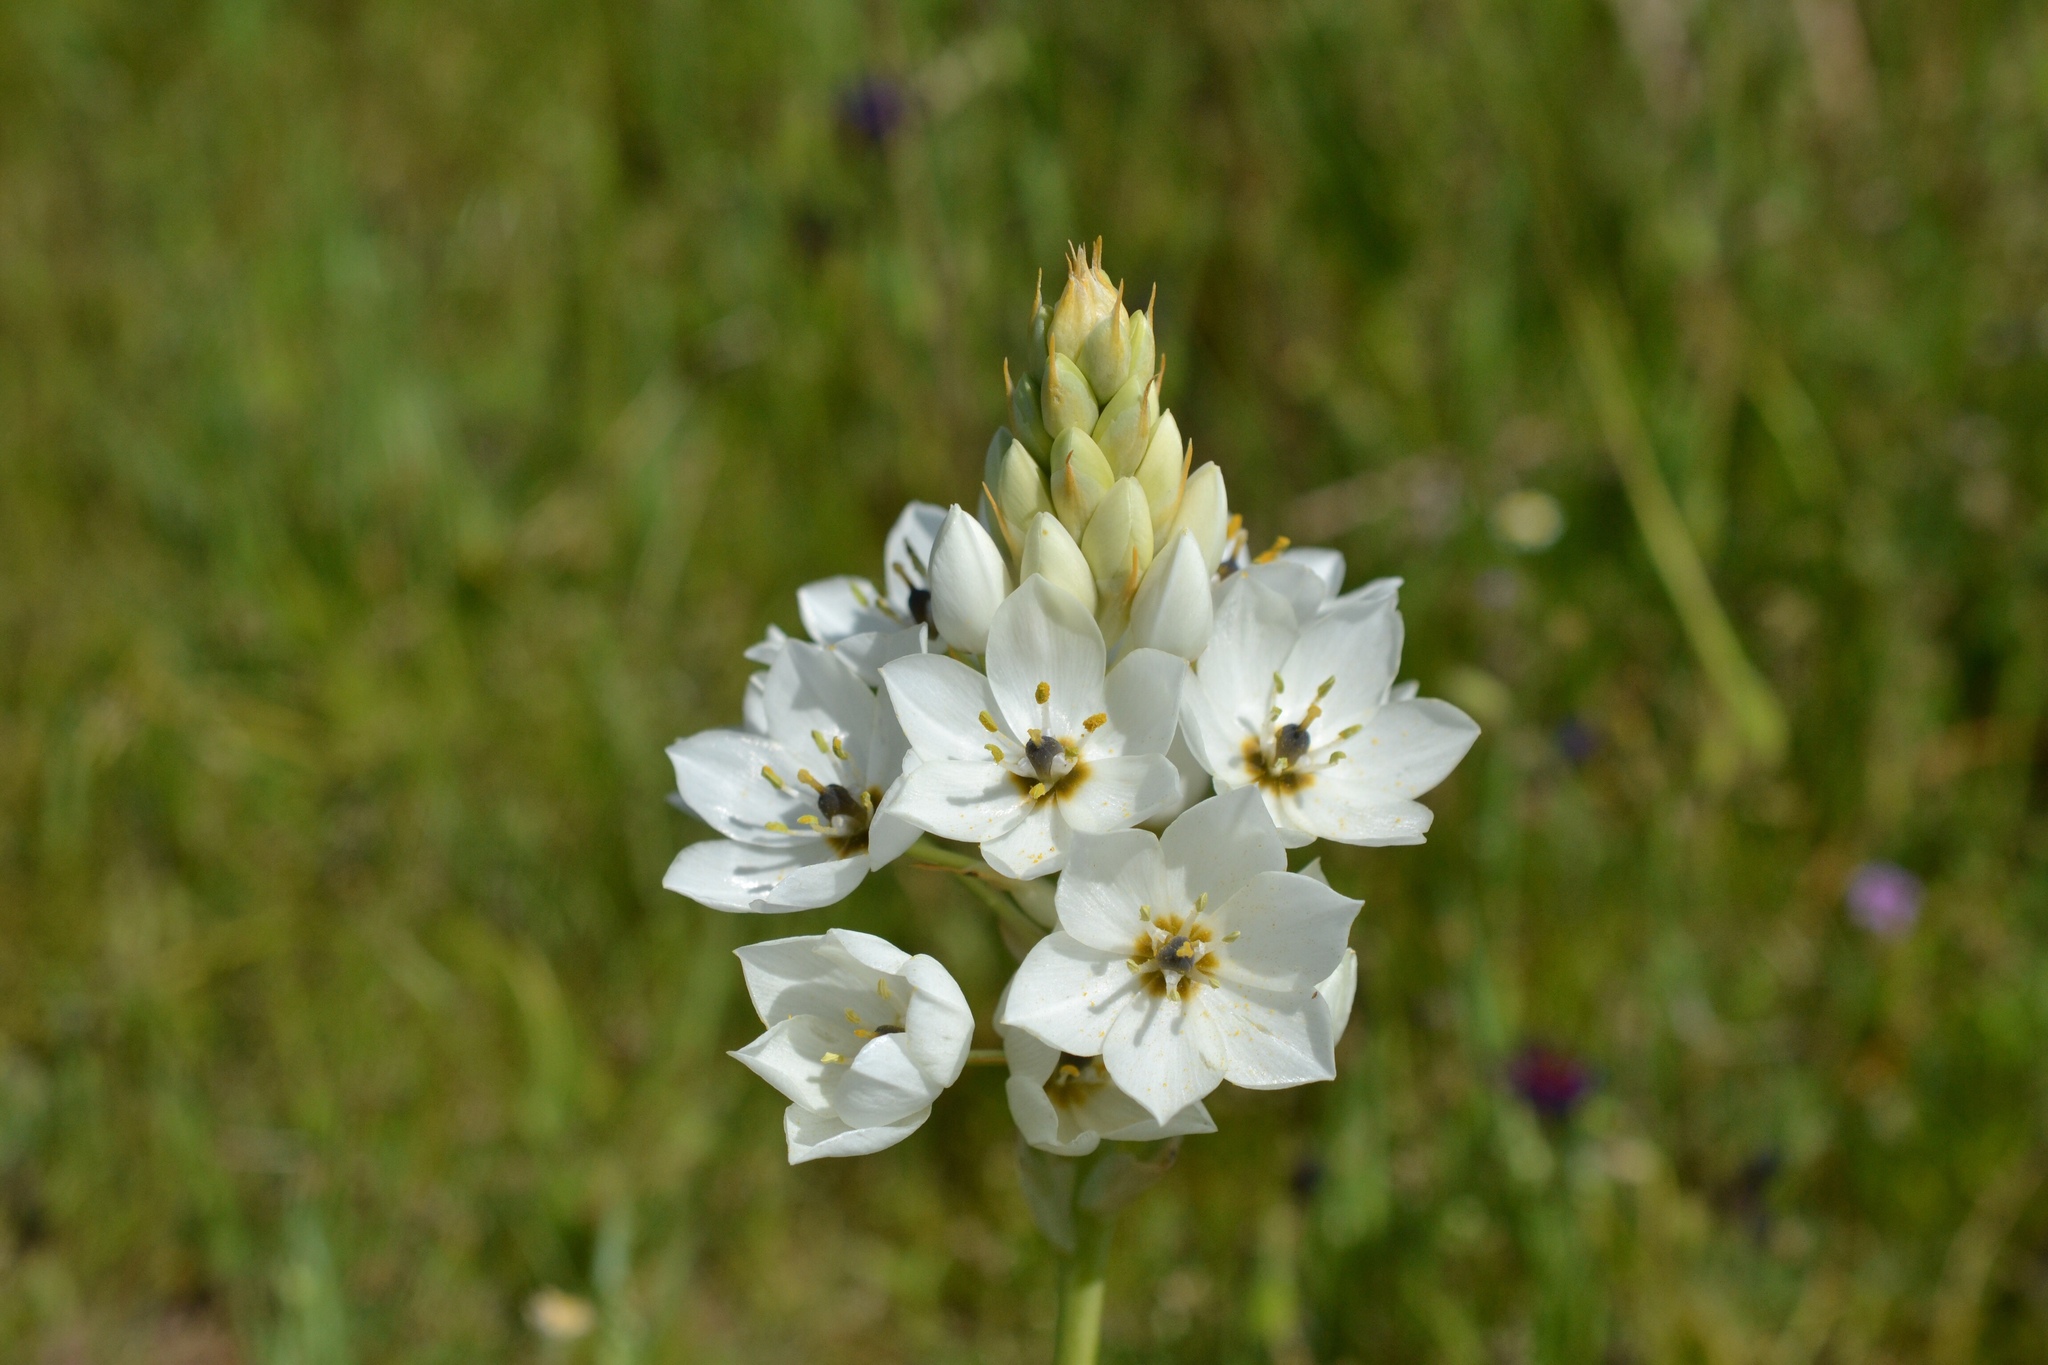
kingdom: Plantae
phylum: Tracheophyta
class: Liliopsida
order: Asparagales
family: Asparagaceae
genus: Ornithogalum
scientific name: Ornithogalum thyrsoides
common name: Chincherinchee
